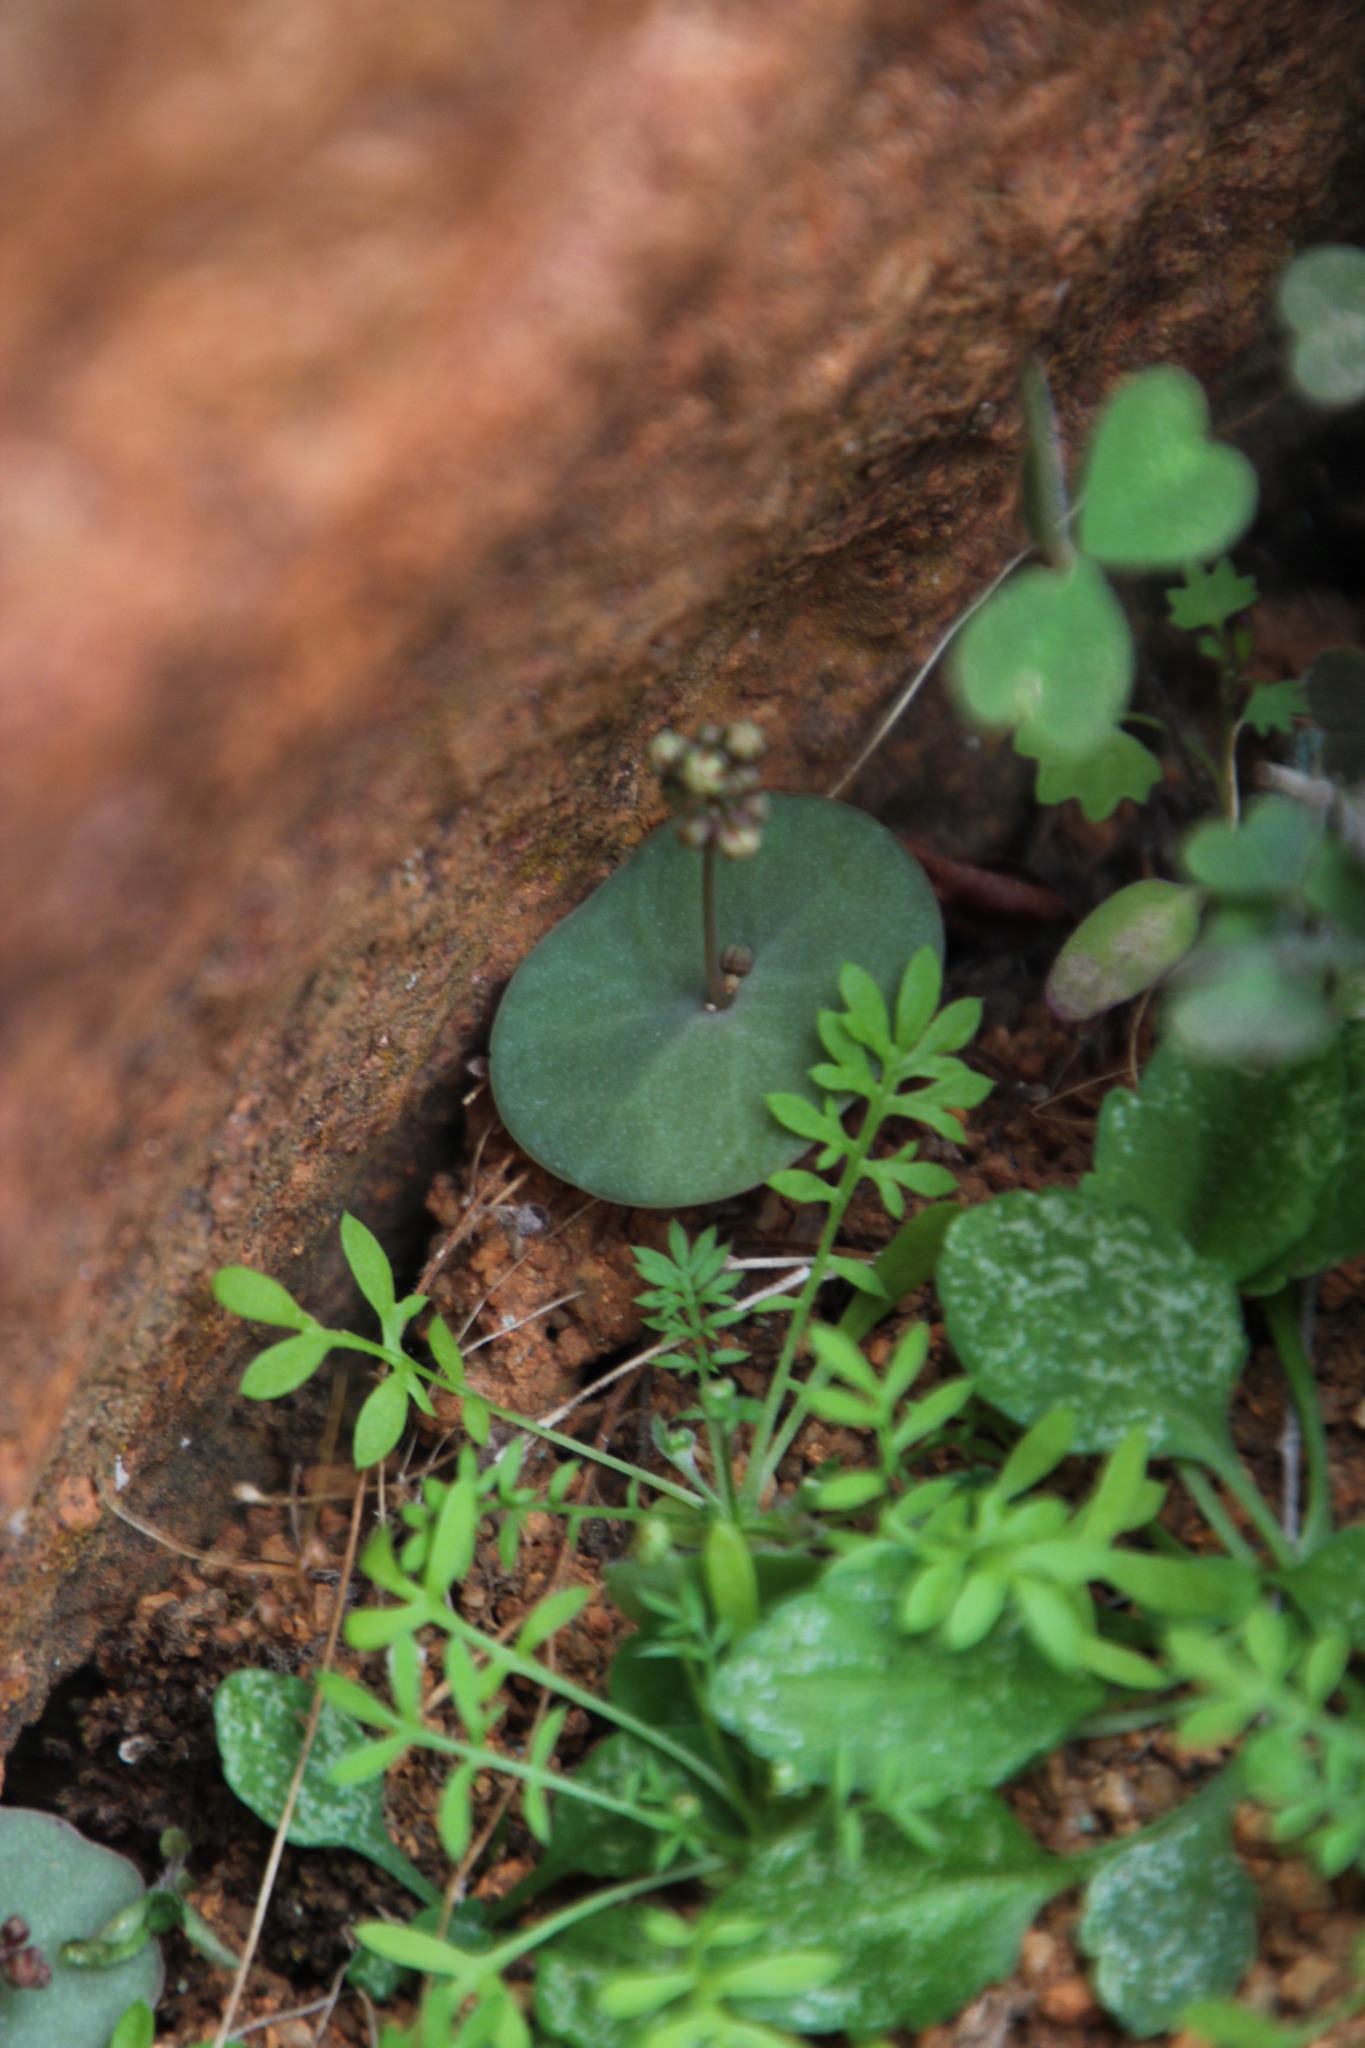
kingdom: Plantae
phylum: Tracheophyta
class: Magnoliopsida
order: Saxifragales
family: Crassulaceae
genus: Crassula
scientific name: Crassula umbella
